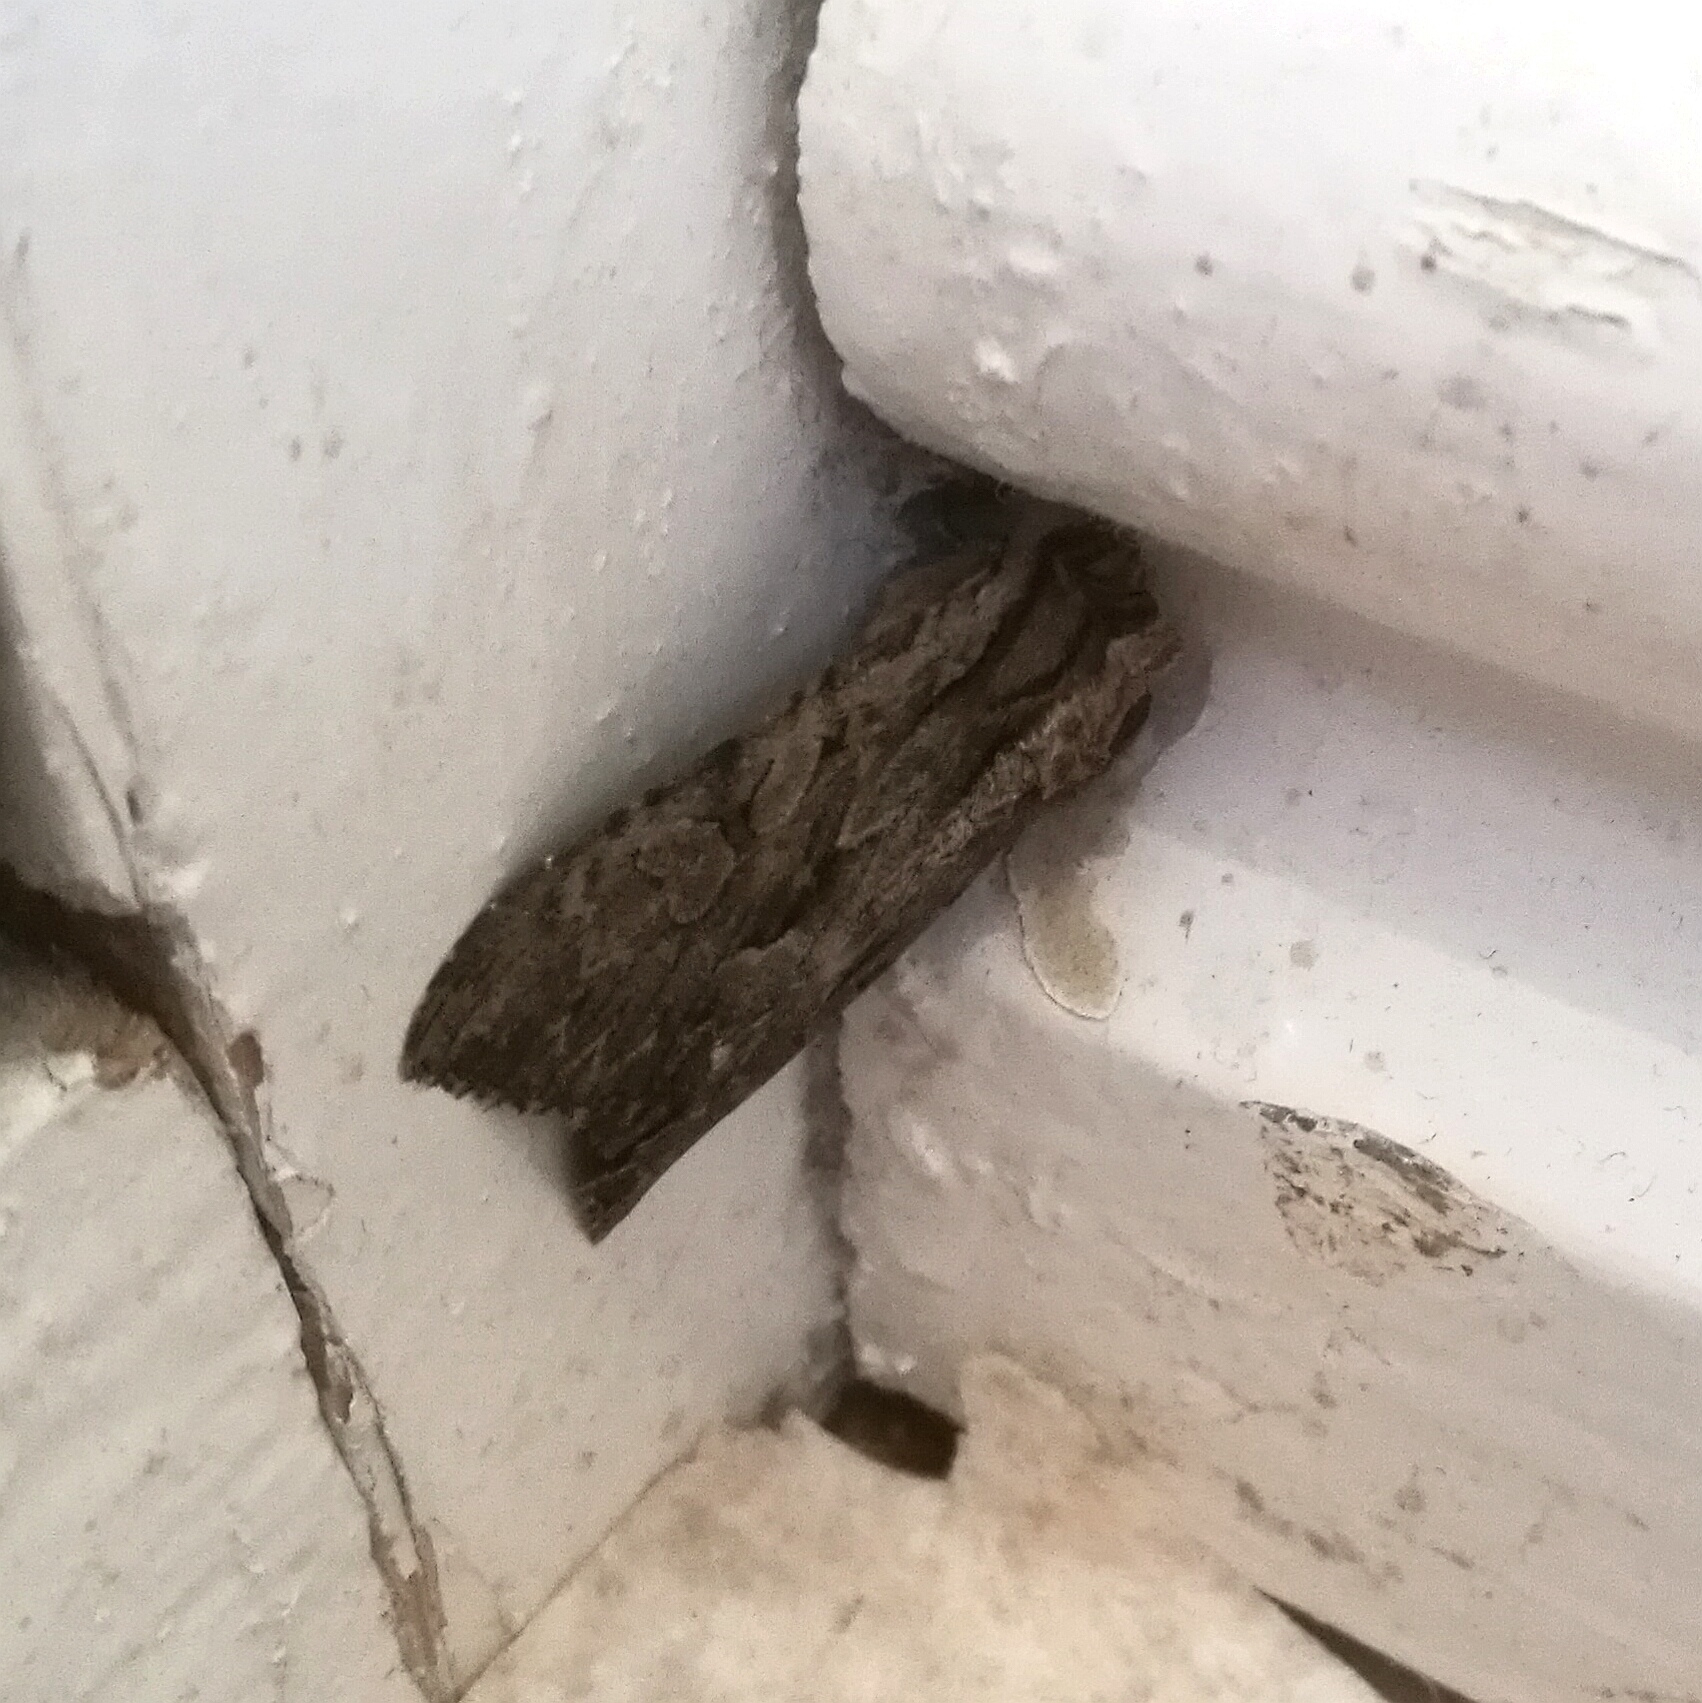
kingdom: Animalia
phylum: Arthropoda
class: Insecta
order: Lepidoptera
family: Noctuidae
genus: Apamea
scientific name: Apamea monoglypha
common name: Dark arches
